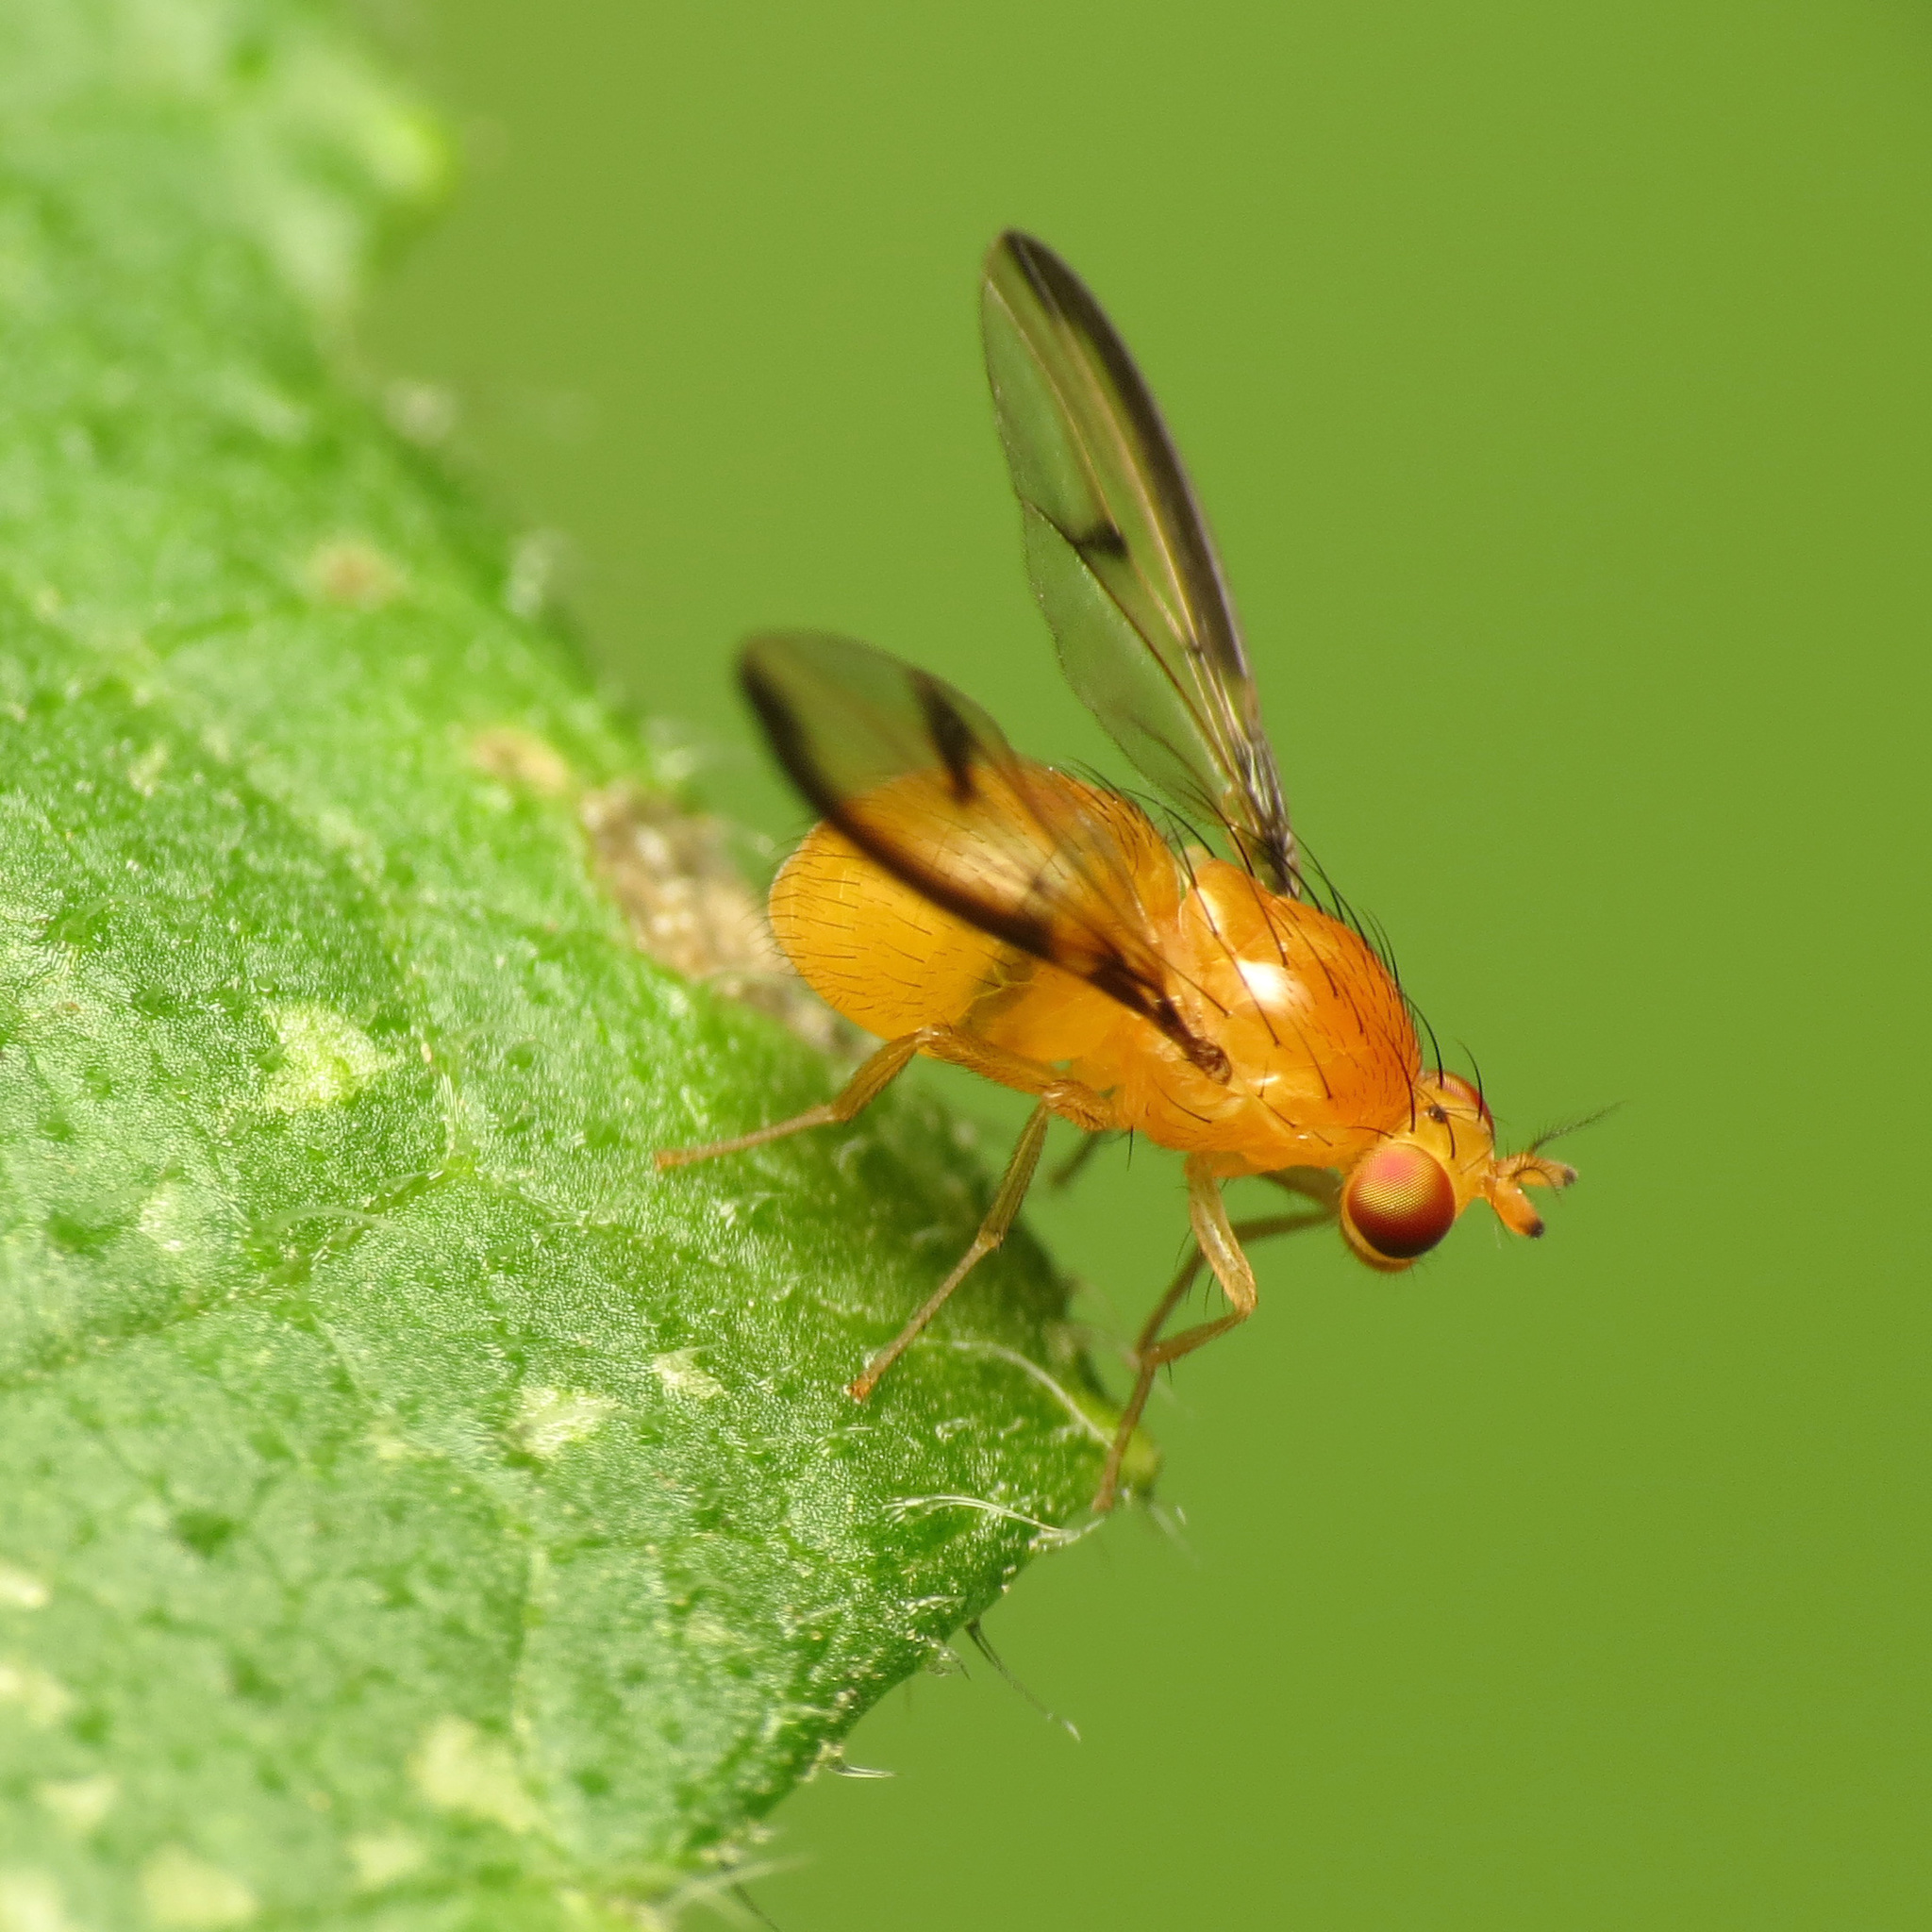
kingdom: Animalia
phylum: Arthropoda
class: Insecta
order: Diptera
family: Lauxaniidae
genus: Camptoprosopella
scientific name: Camptoprosopella maculipennis
